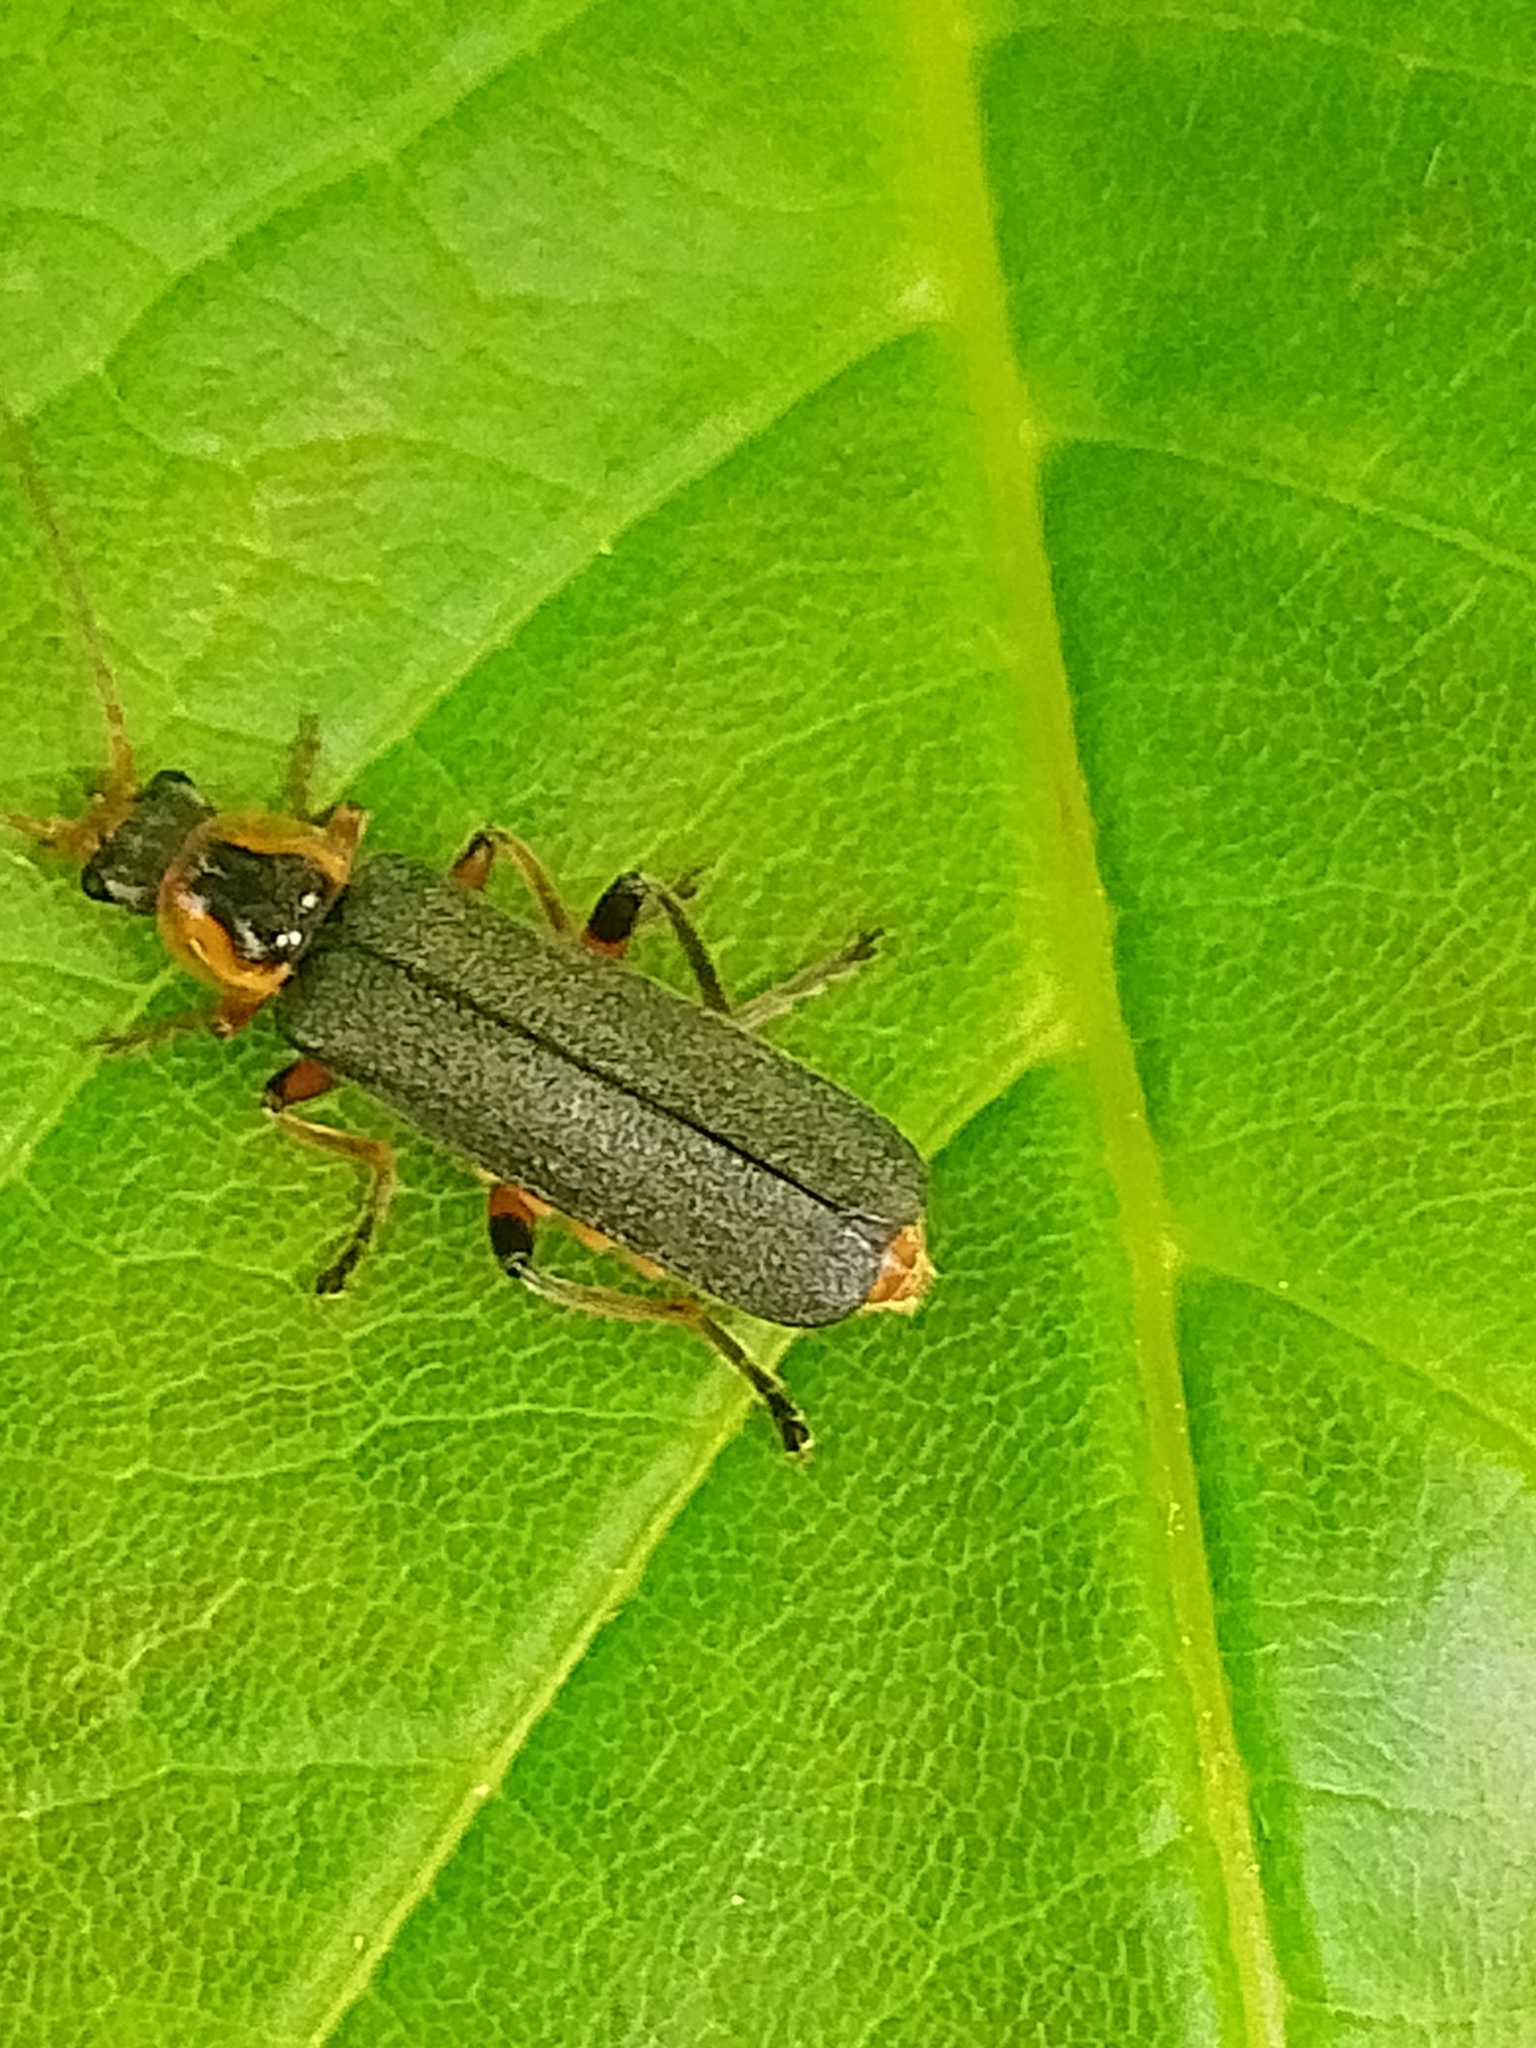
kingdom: Animalia
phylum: Arthropoda
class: Insecta
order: Coleoptera
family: Cantharidae
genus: Cantharis
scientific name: Cantharis nigricans
